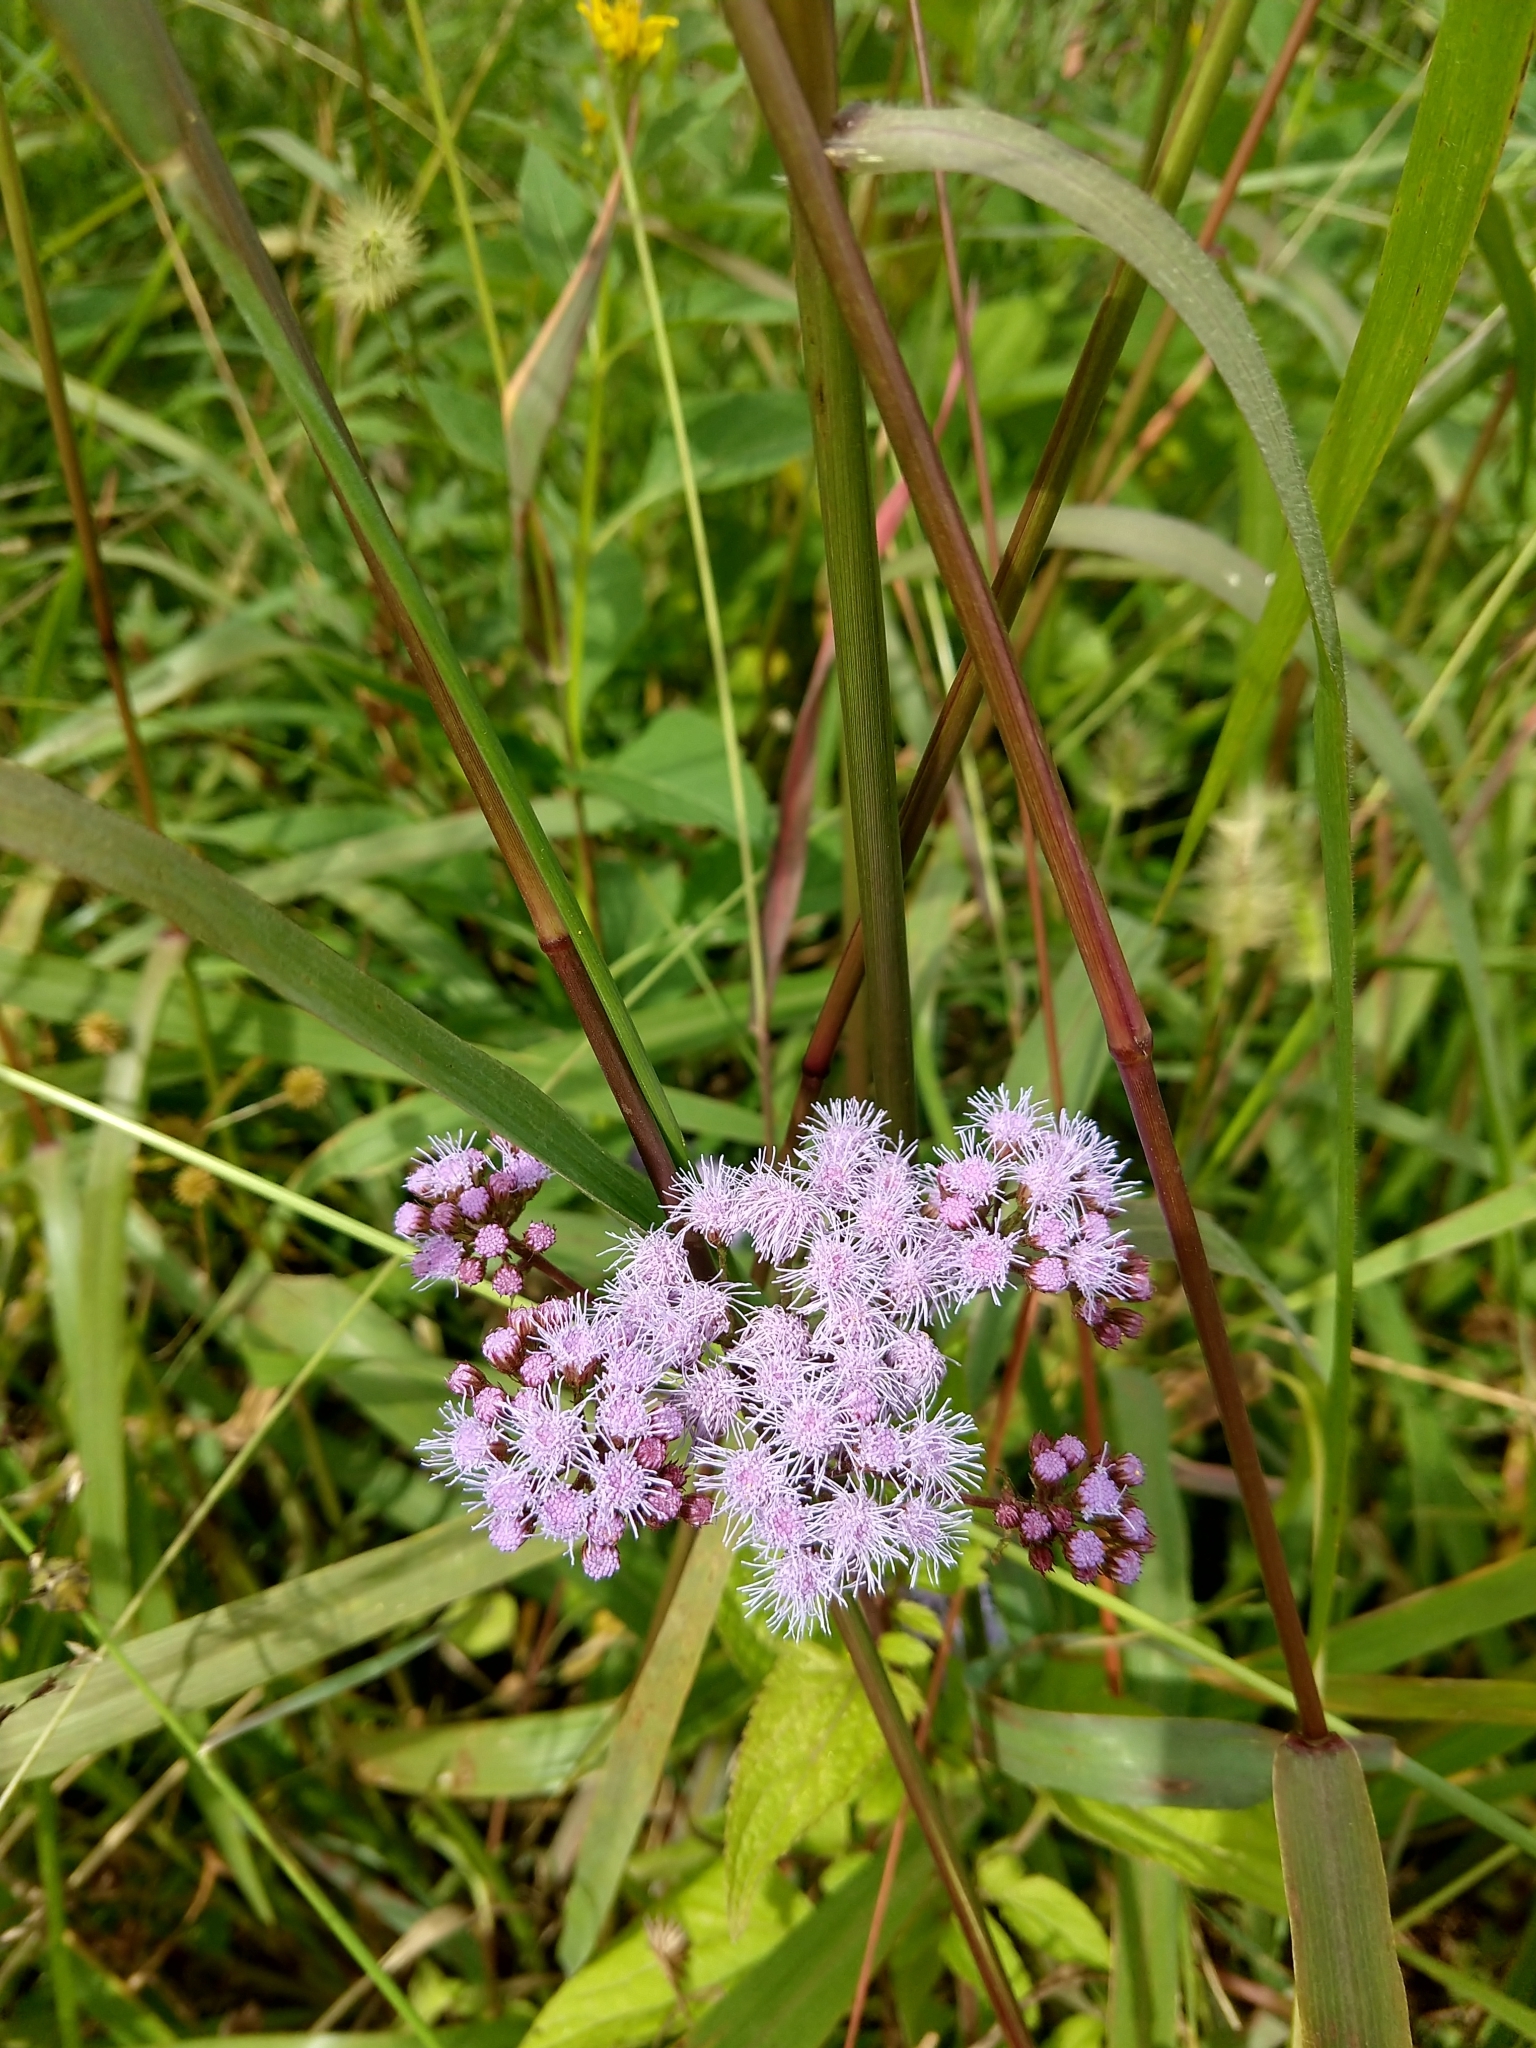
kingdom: Plantae
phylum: Tracheophyta
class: Magnoliopsida
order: Asterales
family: Asteraceae
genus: Conoclinium
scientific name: Conoclinium coelestinum
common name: Blue mistflower
